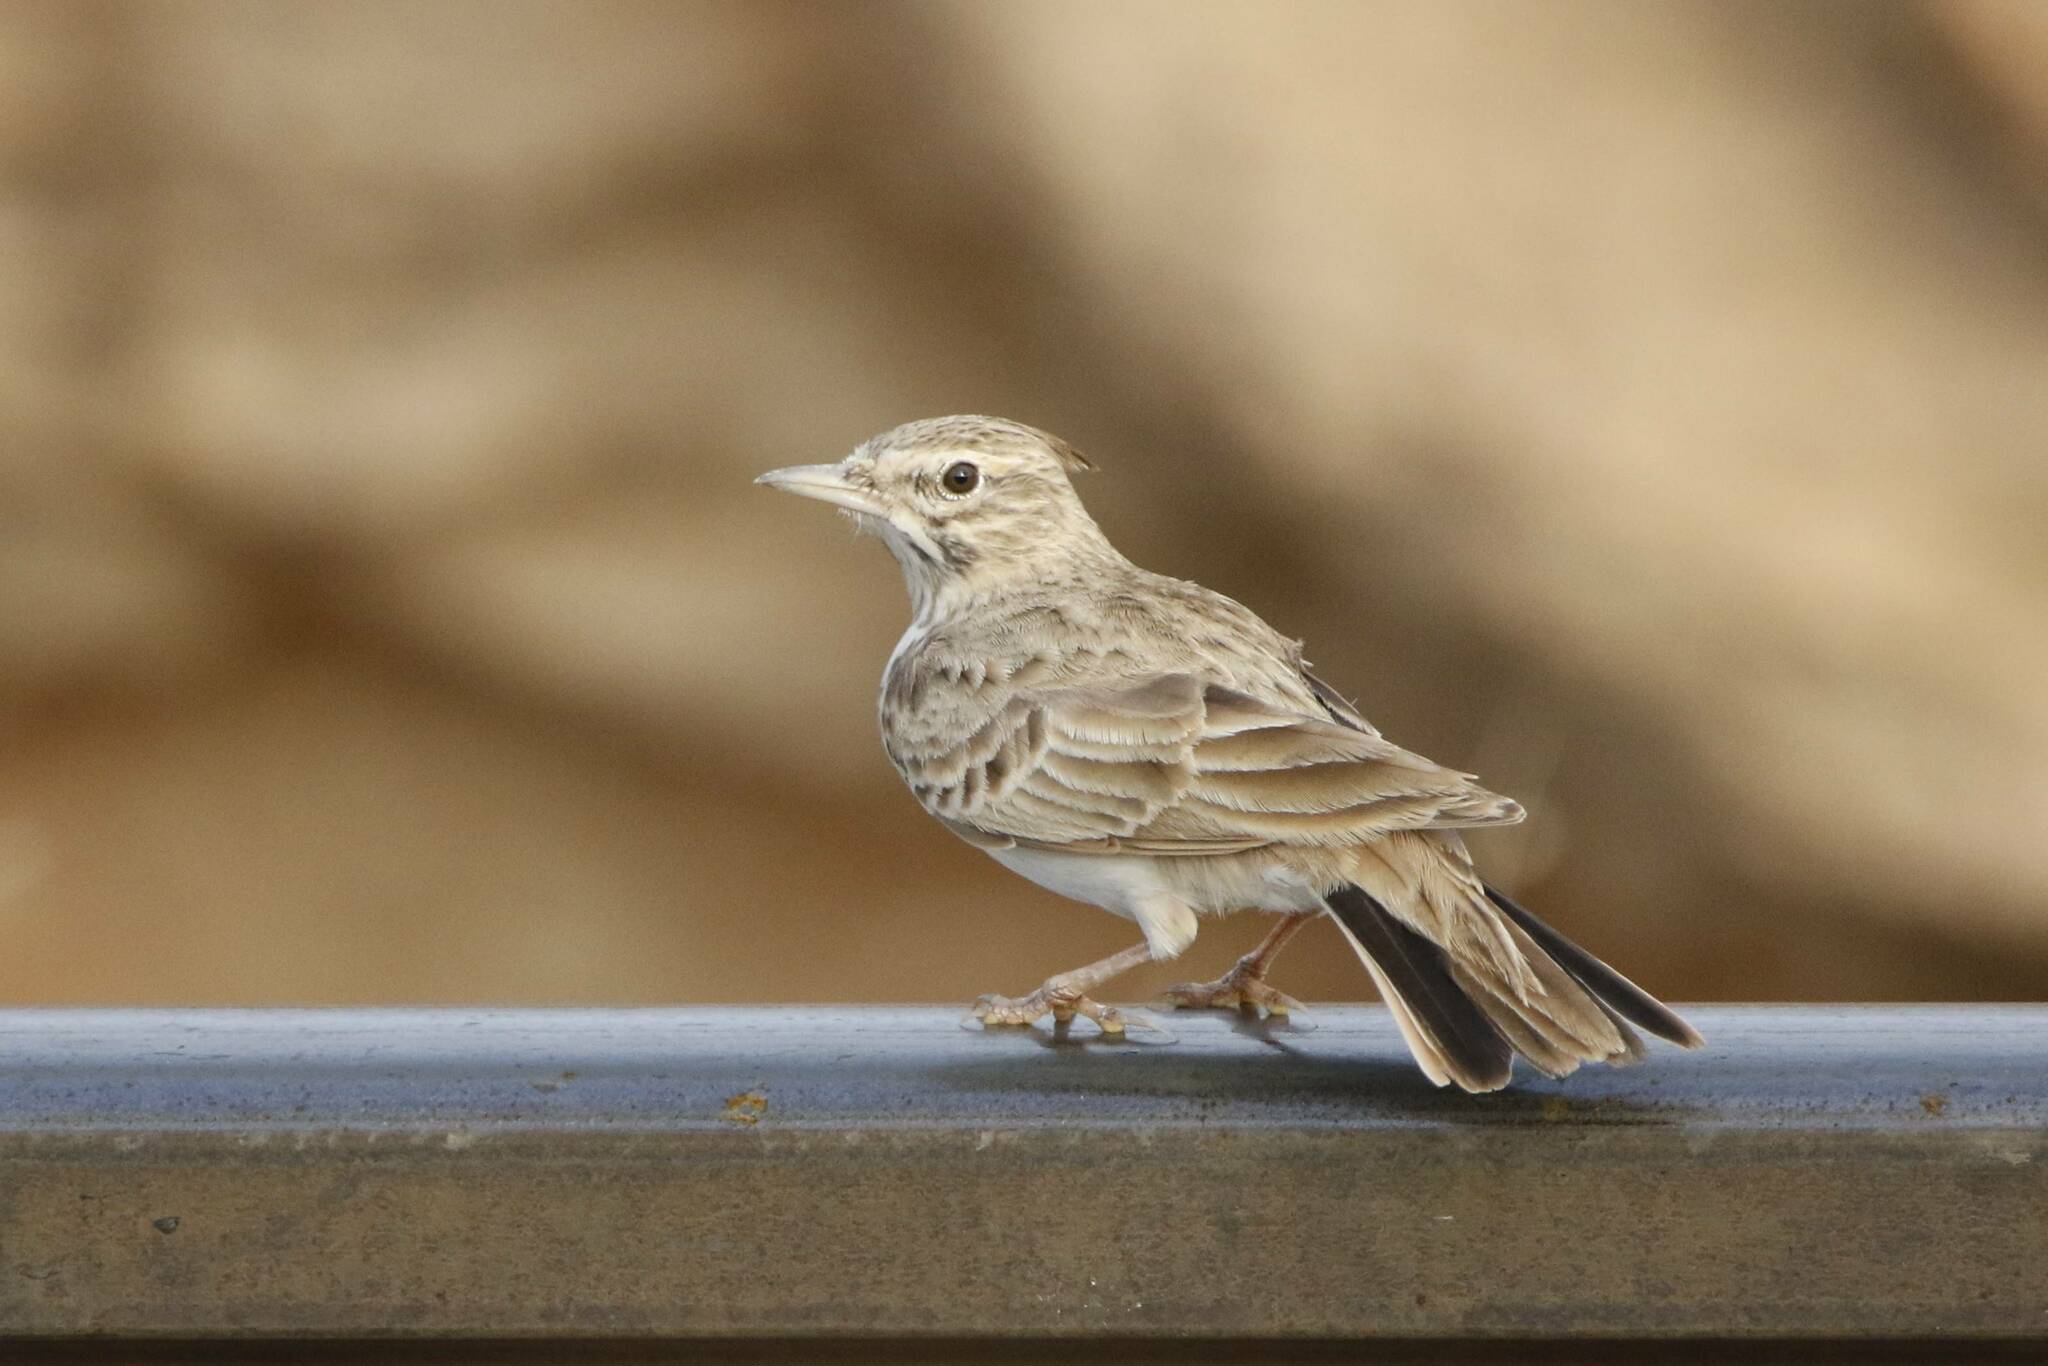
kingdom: Animalia
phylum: Chordata
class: Aves
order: Passeriformes
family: Alaudidae
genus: Galerida
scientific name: Galerida cristata
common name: Crested lark
